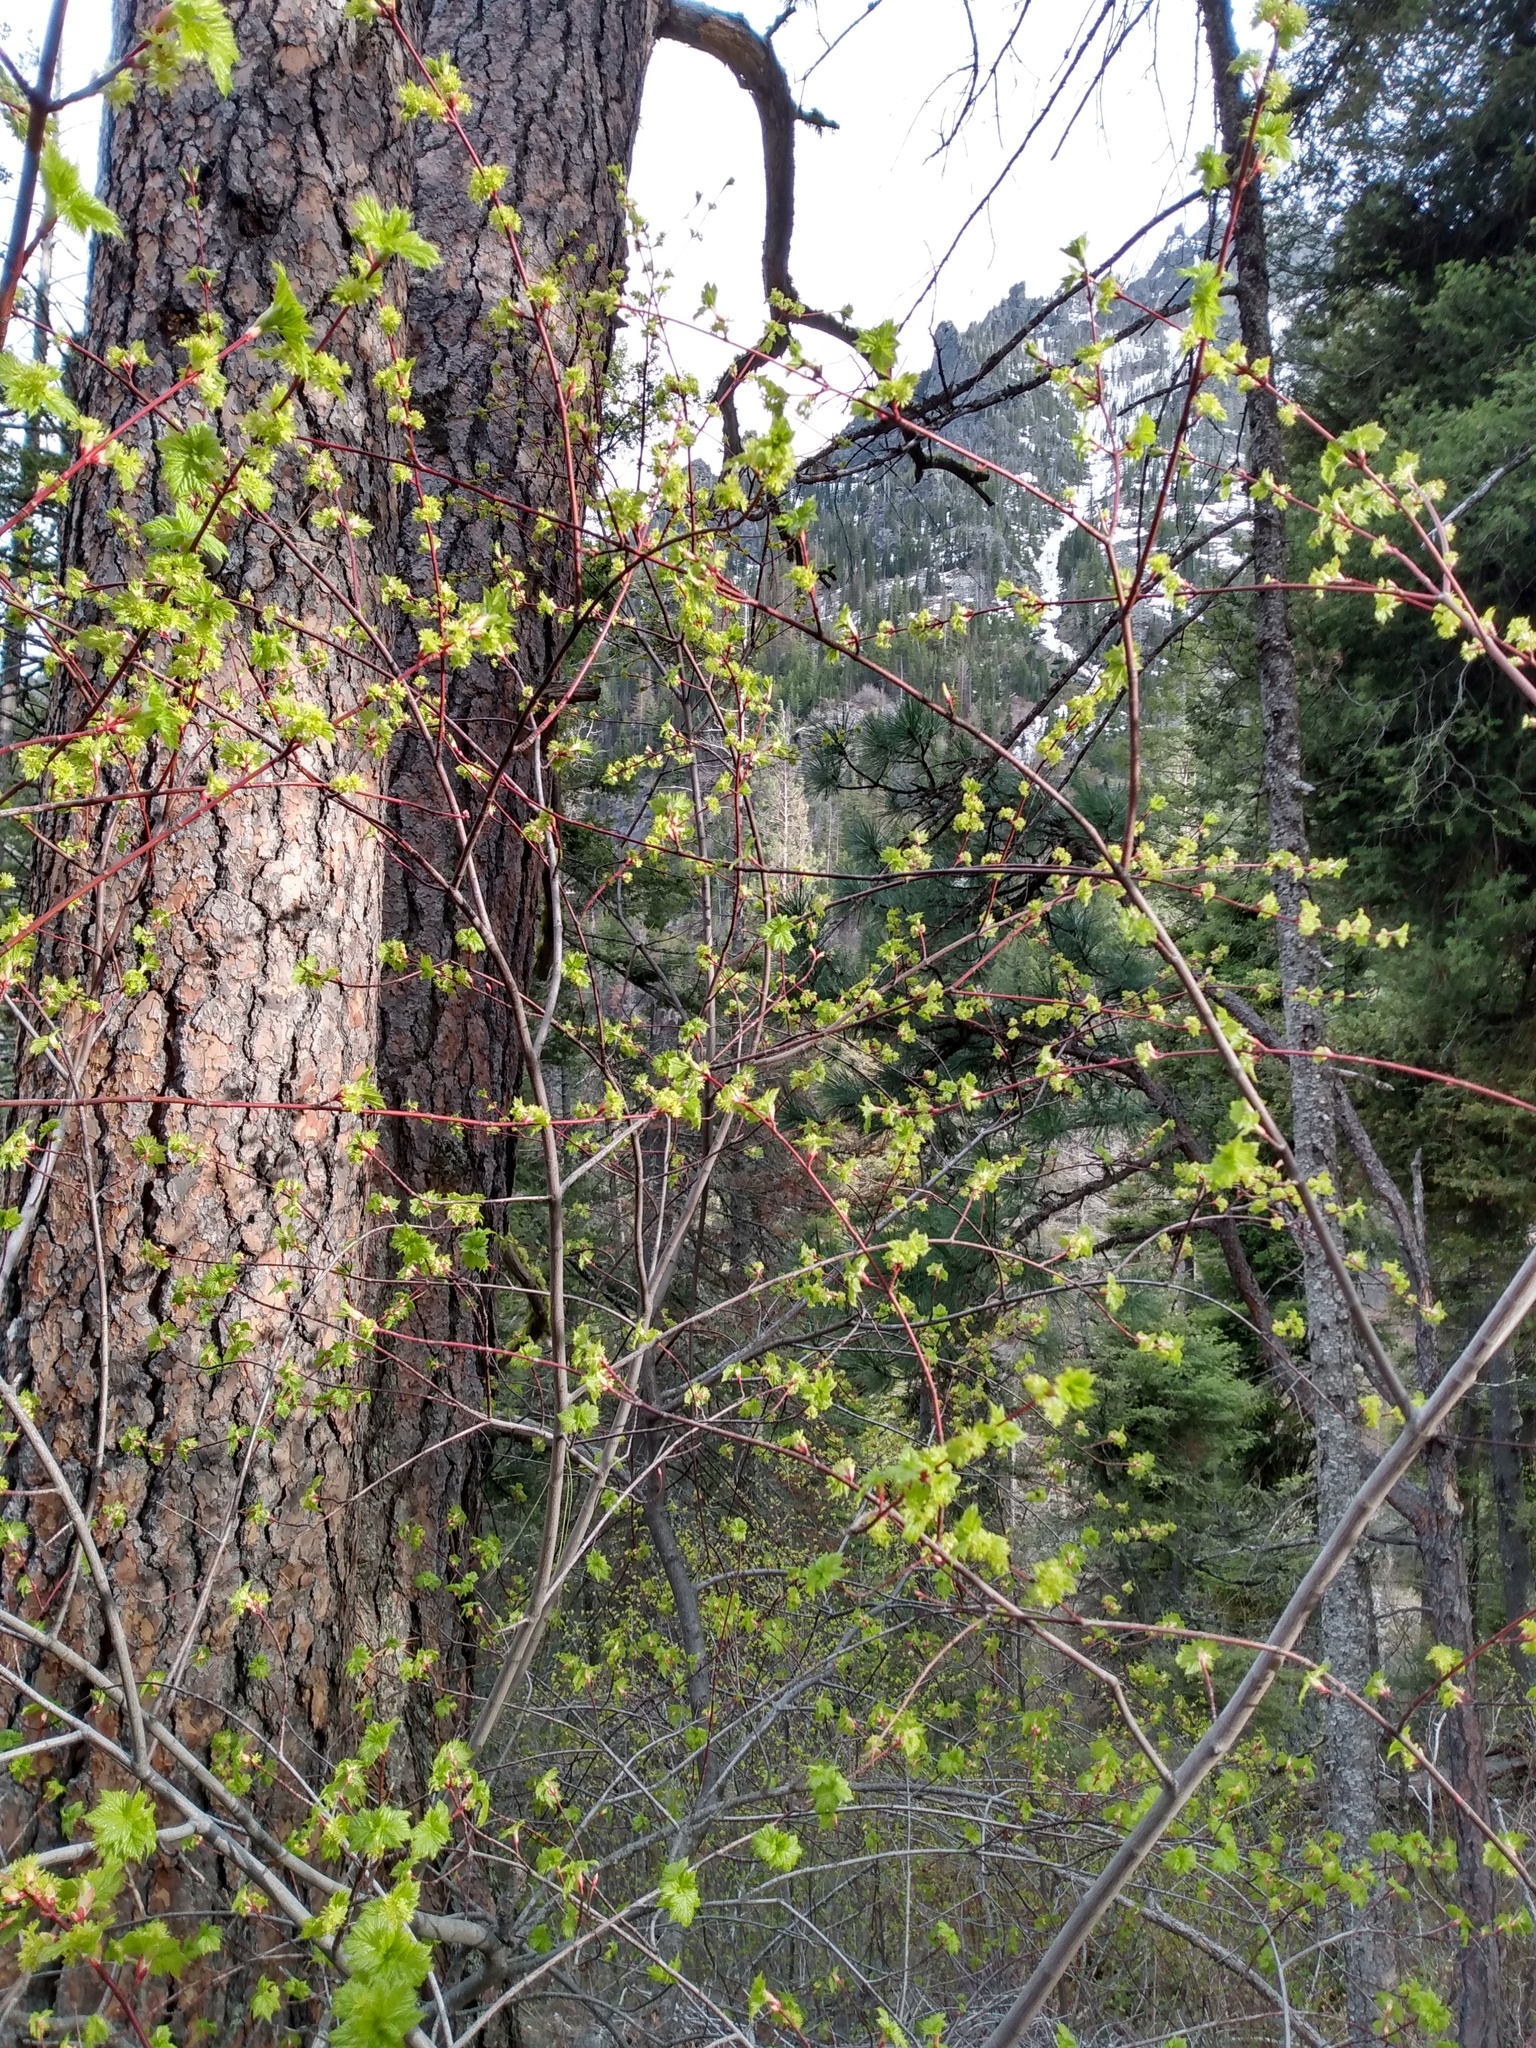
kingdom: Plantae
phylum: Tracheophyta
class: Magnoliopsida
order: Sapindales
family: Sapindaceae
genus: Acer
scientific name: Acer glabrum
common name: Rocky mountain maple
